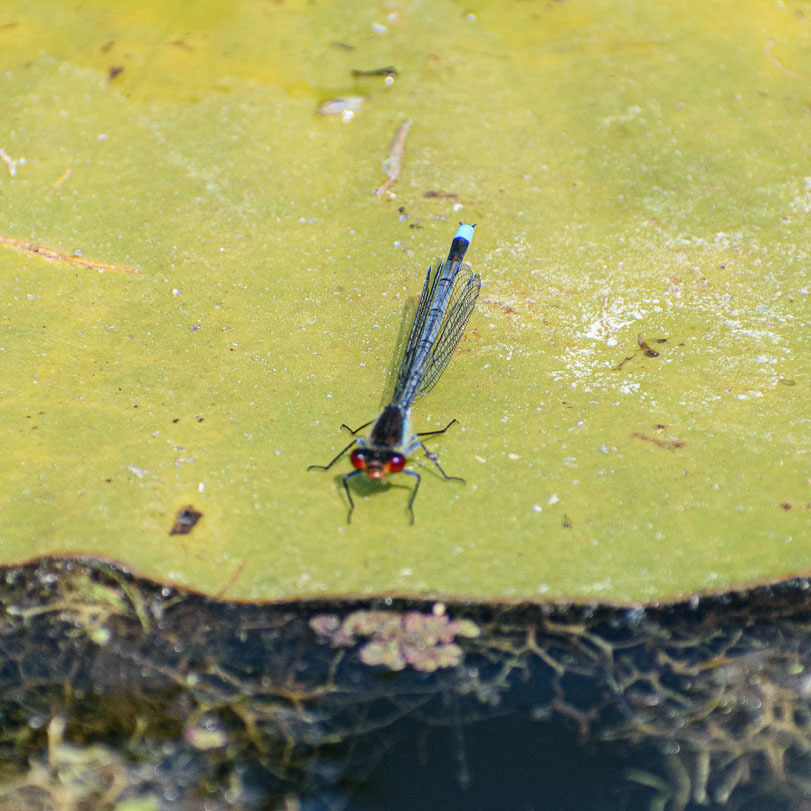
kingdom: Animalia
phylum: Arthropoda
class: Insecta
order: Odonata
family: Coenagrionidae
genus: Erythromma
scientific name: Erythromma najas
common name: Red-eyed damselfly
